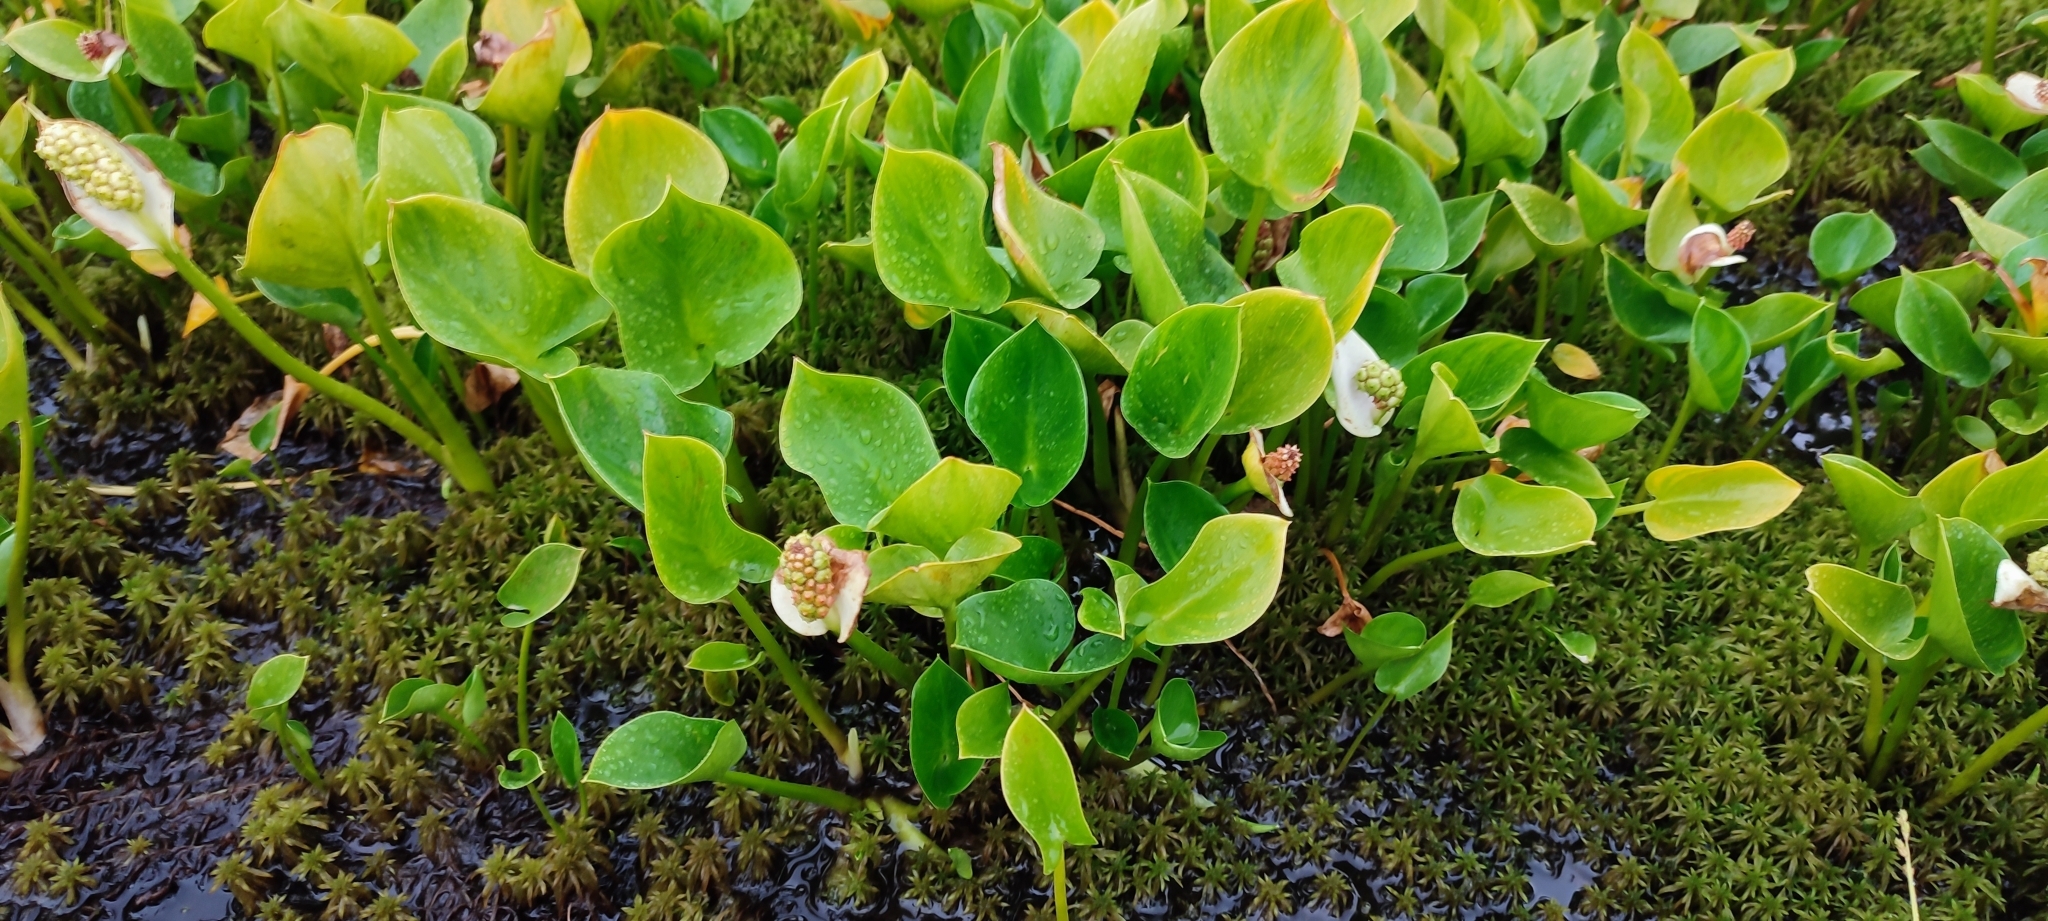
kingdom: Plantae
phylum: Tracheophyta
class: Liliopsida
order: Alismatales
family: Araceae
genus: Calla
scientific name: Calla palustris
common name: Bog arum
